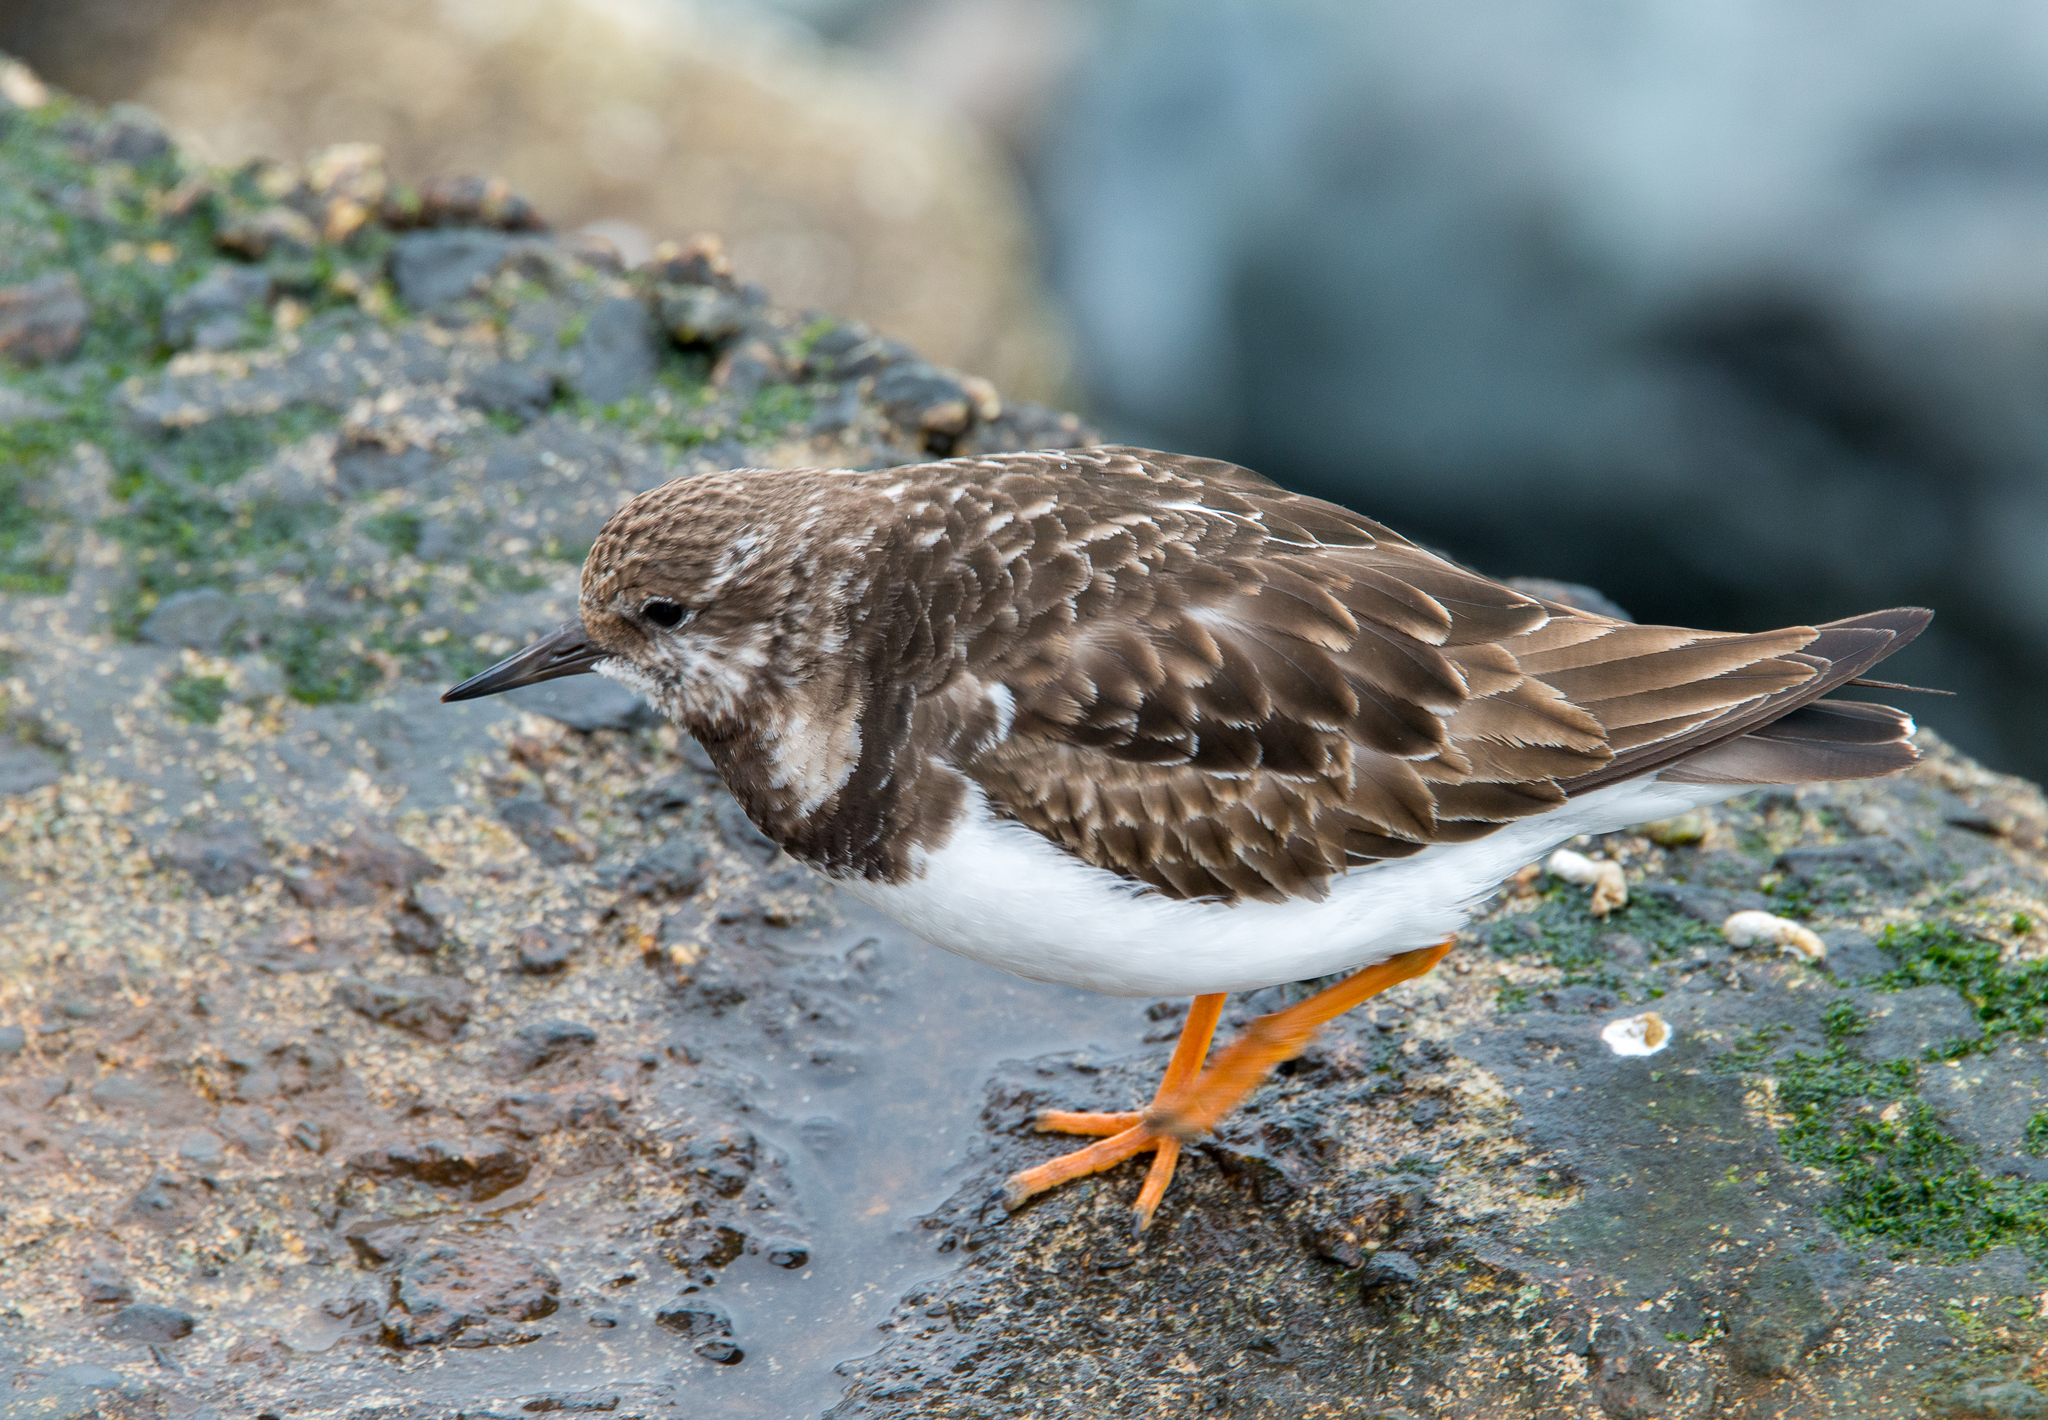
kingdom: Animalia
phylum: Chordata
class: Aves
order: Charadriiformes
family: Scolopacidae
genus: Arenaria
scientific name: Arenaria interpres
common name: Ruddy turnstone
